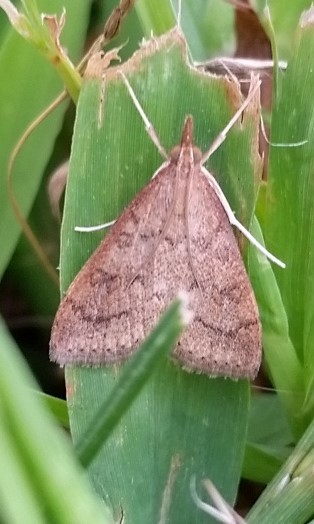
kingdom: Animalia
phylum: Arthropoda
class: Insecta
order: Lepidoptera
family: Crambidae
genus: Udea
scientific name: Udea rubigalis
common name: Celery leaftier moth
